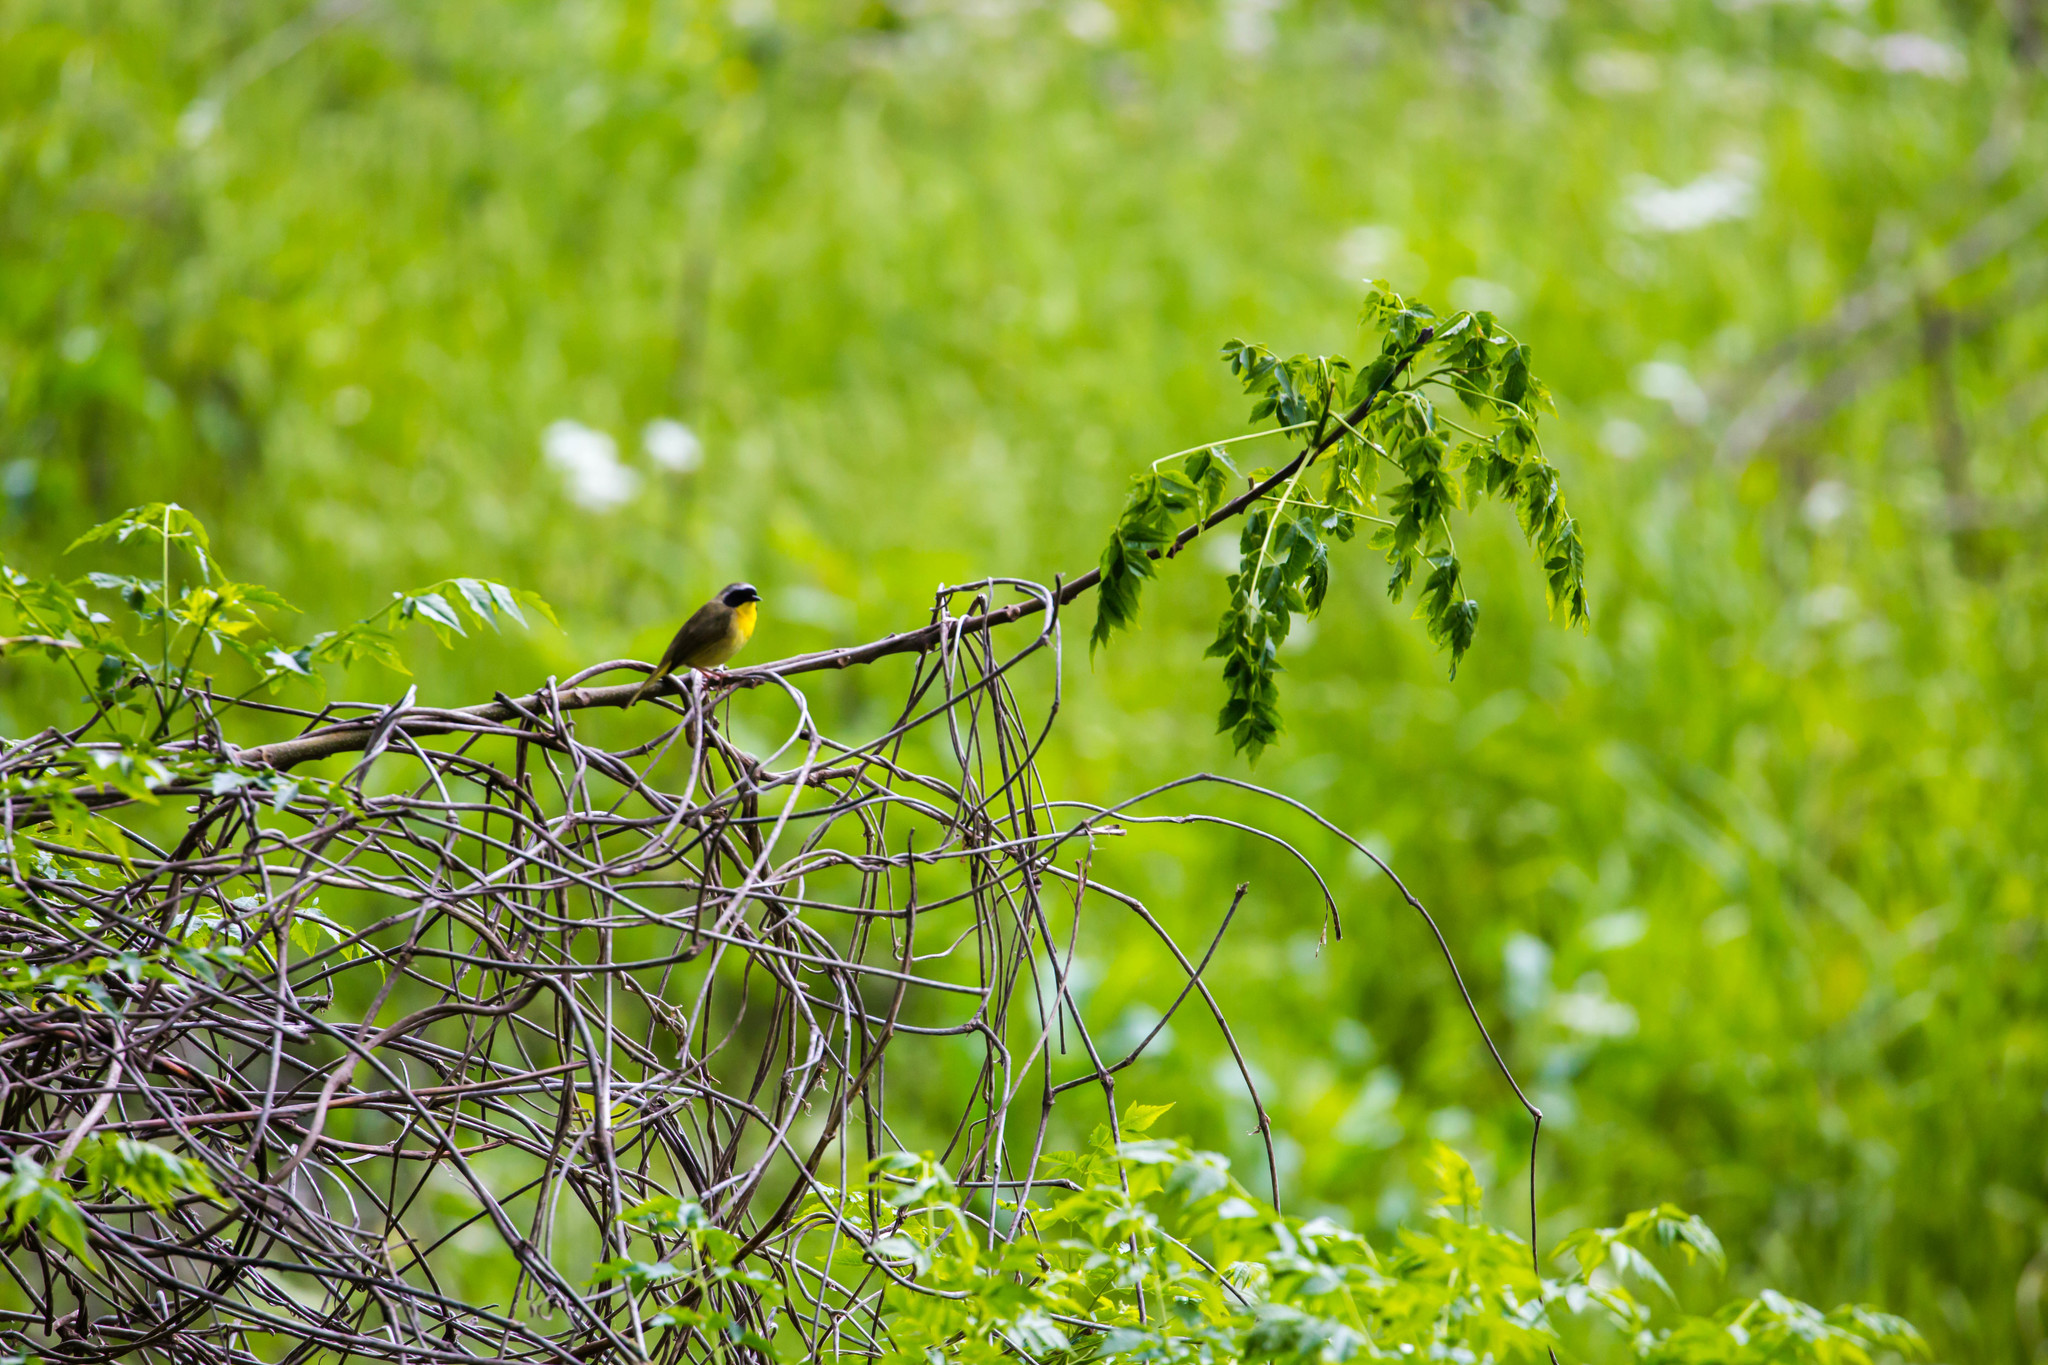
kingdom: Animalia
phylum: Chordata
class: Aves
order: Passeriformes
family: Parulidae
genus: Geothlypis
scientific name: Geothlypis trichas
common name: Common yellowthroat
